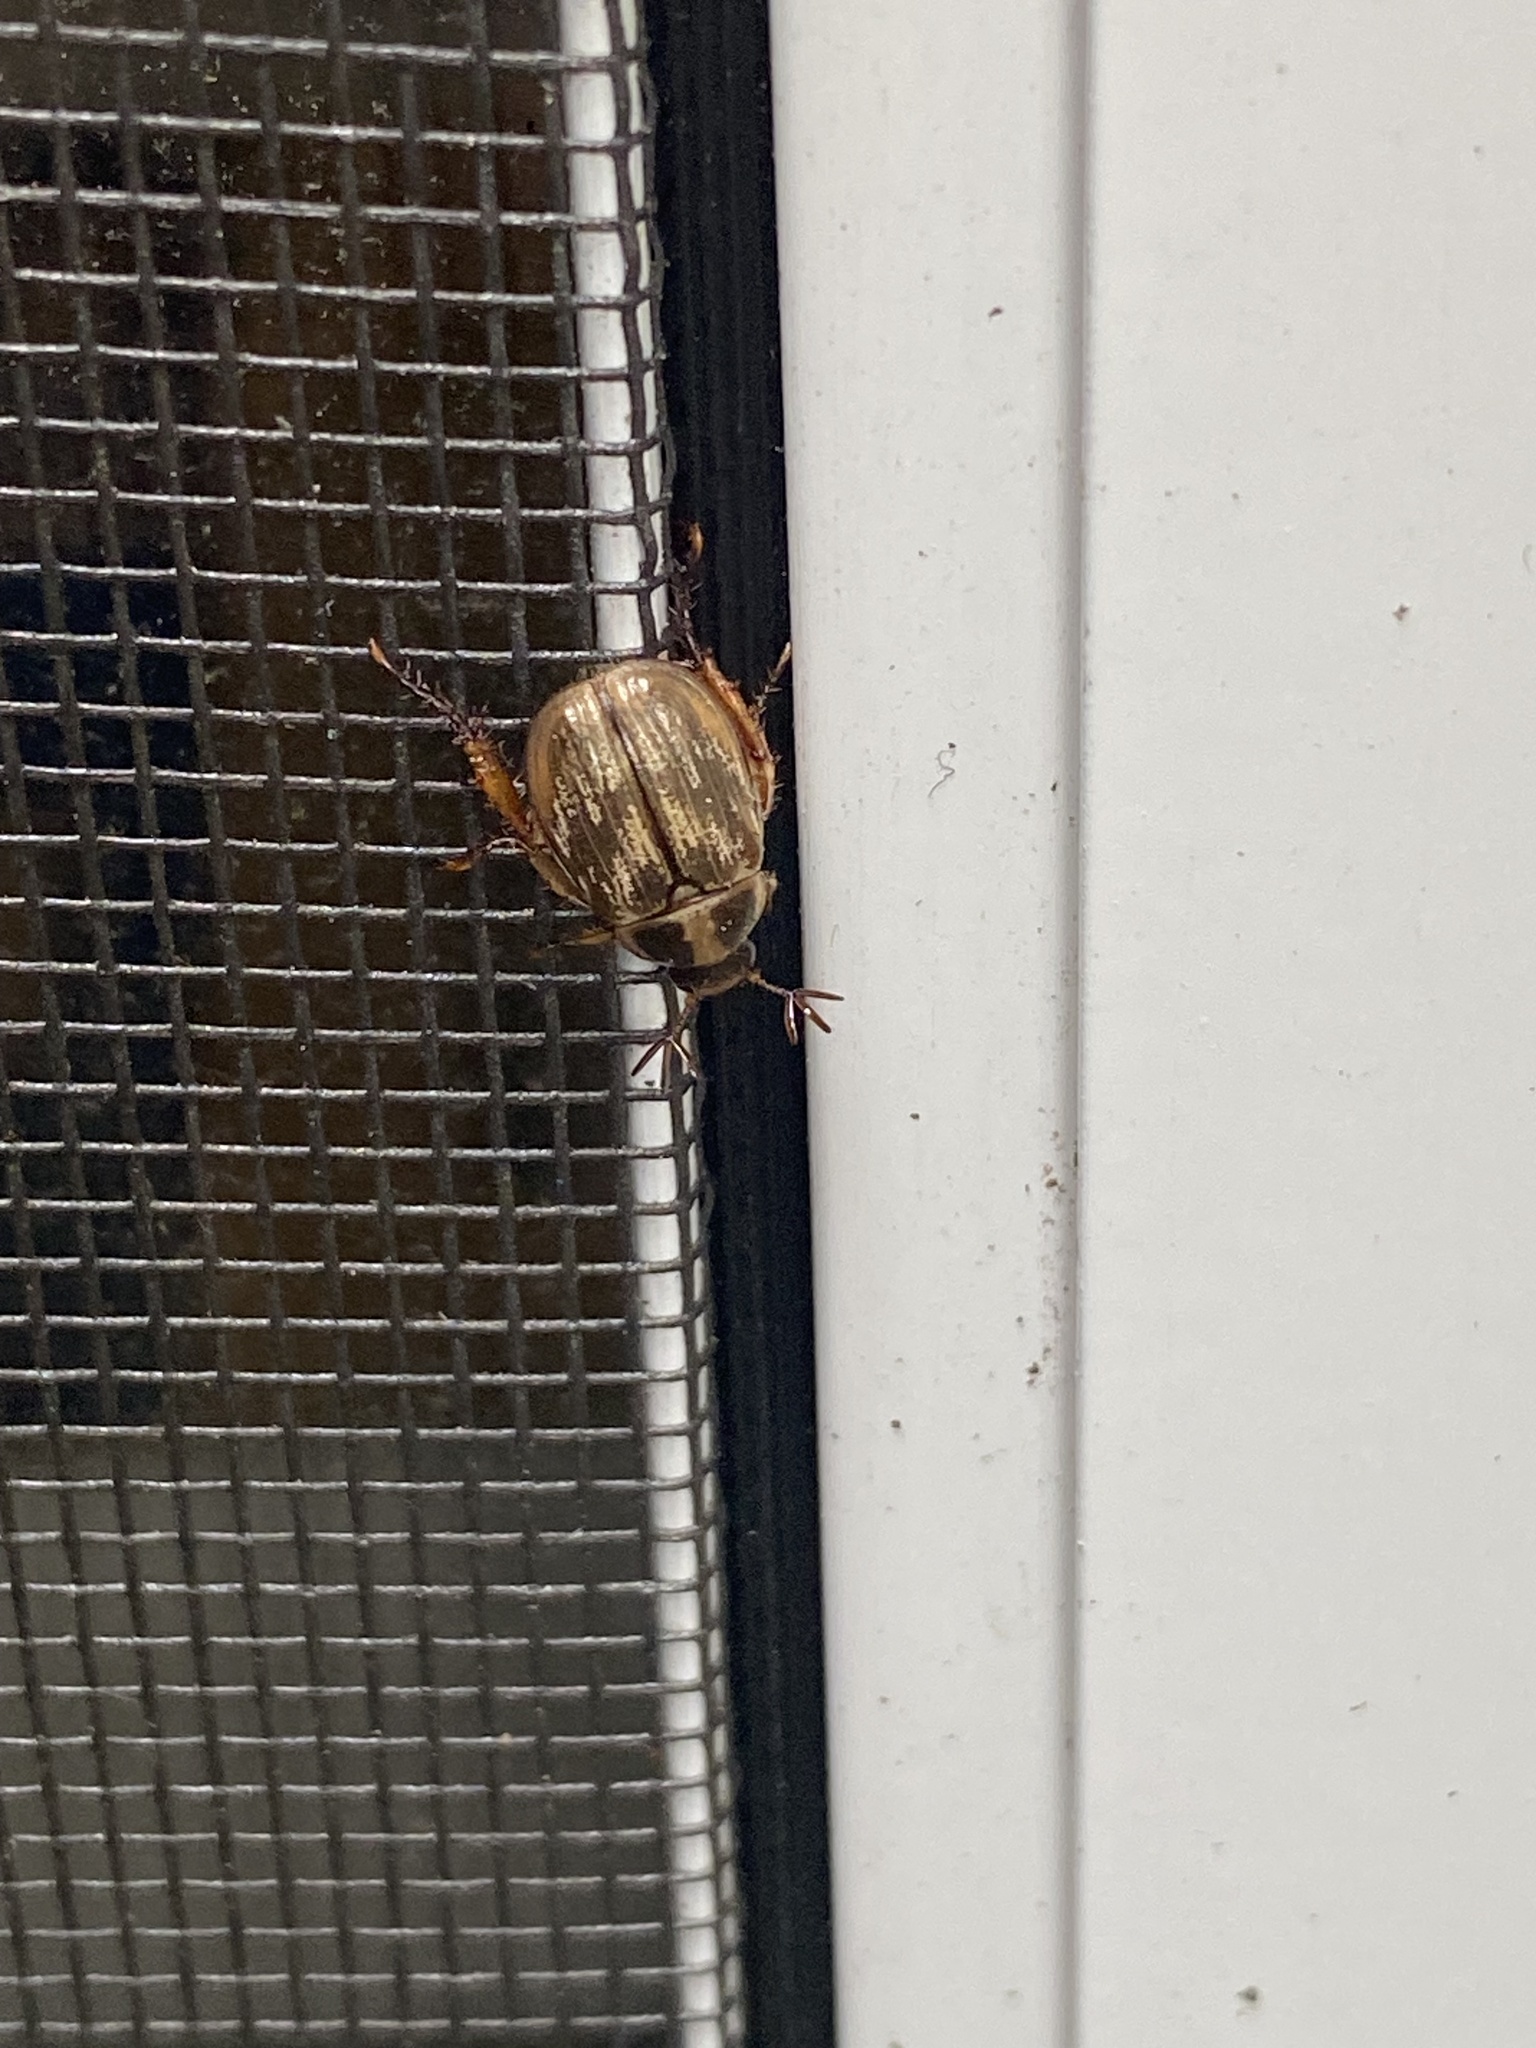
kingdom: Animalia
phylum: Arthropoda
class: Insecta
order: Coleoptera
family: Scarabaeidae
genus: Exomala
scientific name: Exomala orientalis
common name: Oriental beetle
